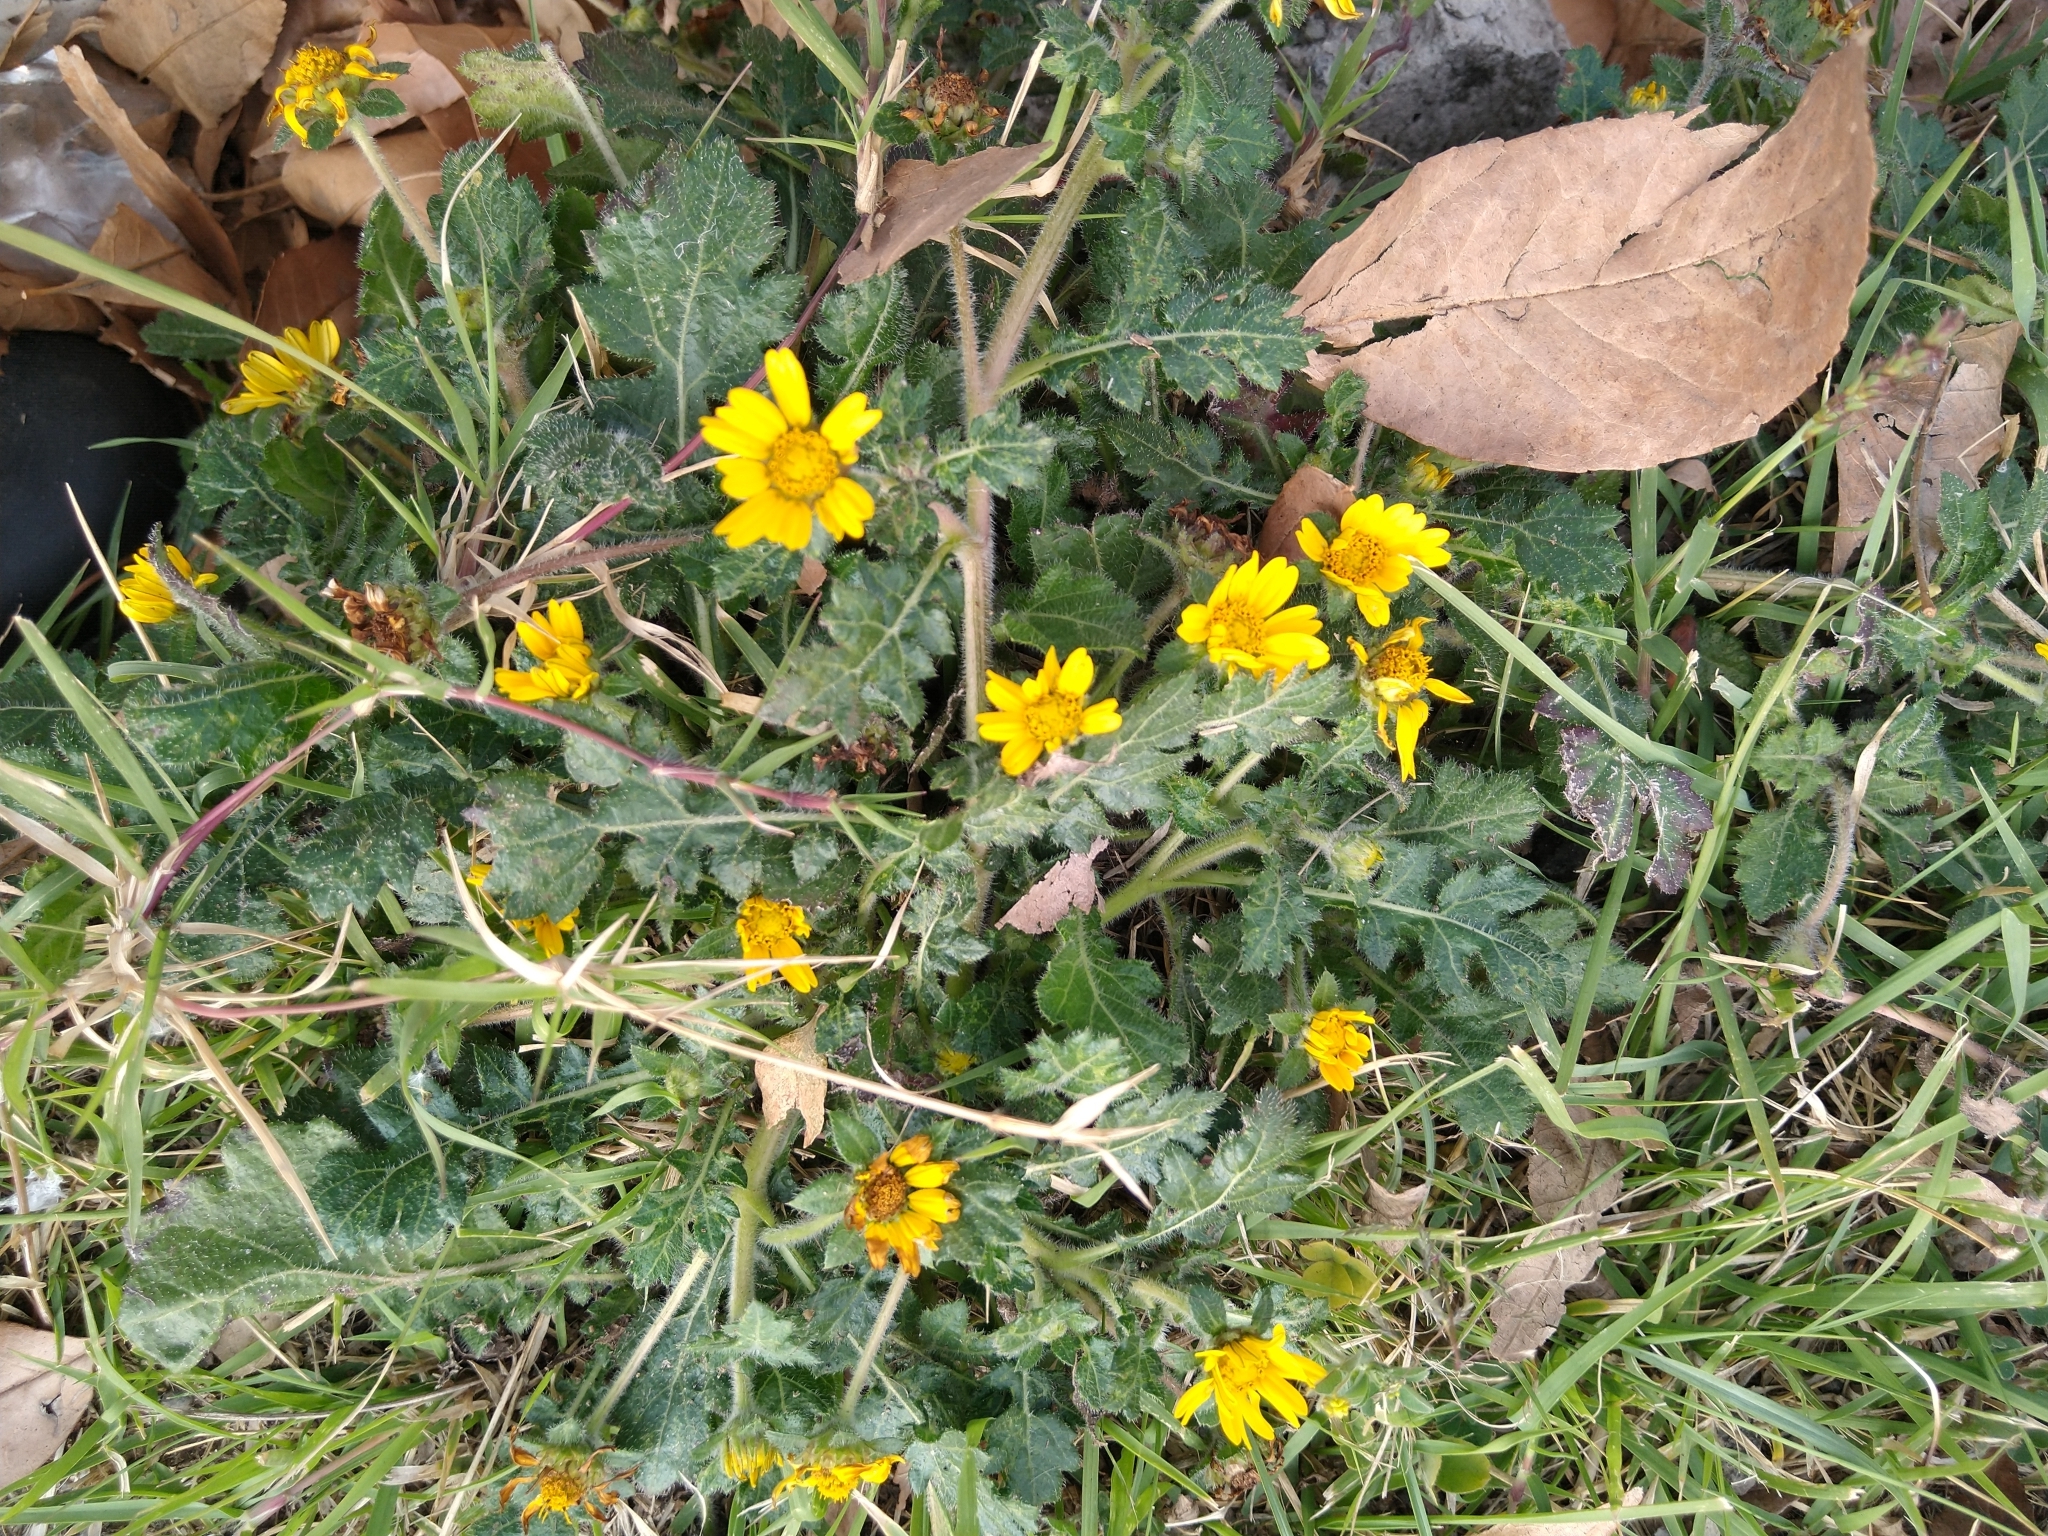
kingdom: Plantae
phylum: Tracheophyta
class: Magnoliopsida
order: Asterales
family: Asteraceae
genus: Dugesia
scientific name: Dugesia mexicana
